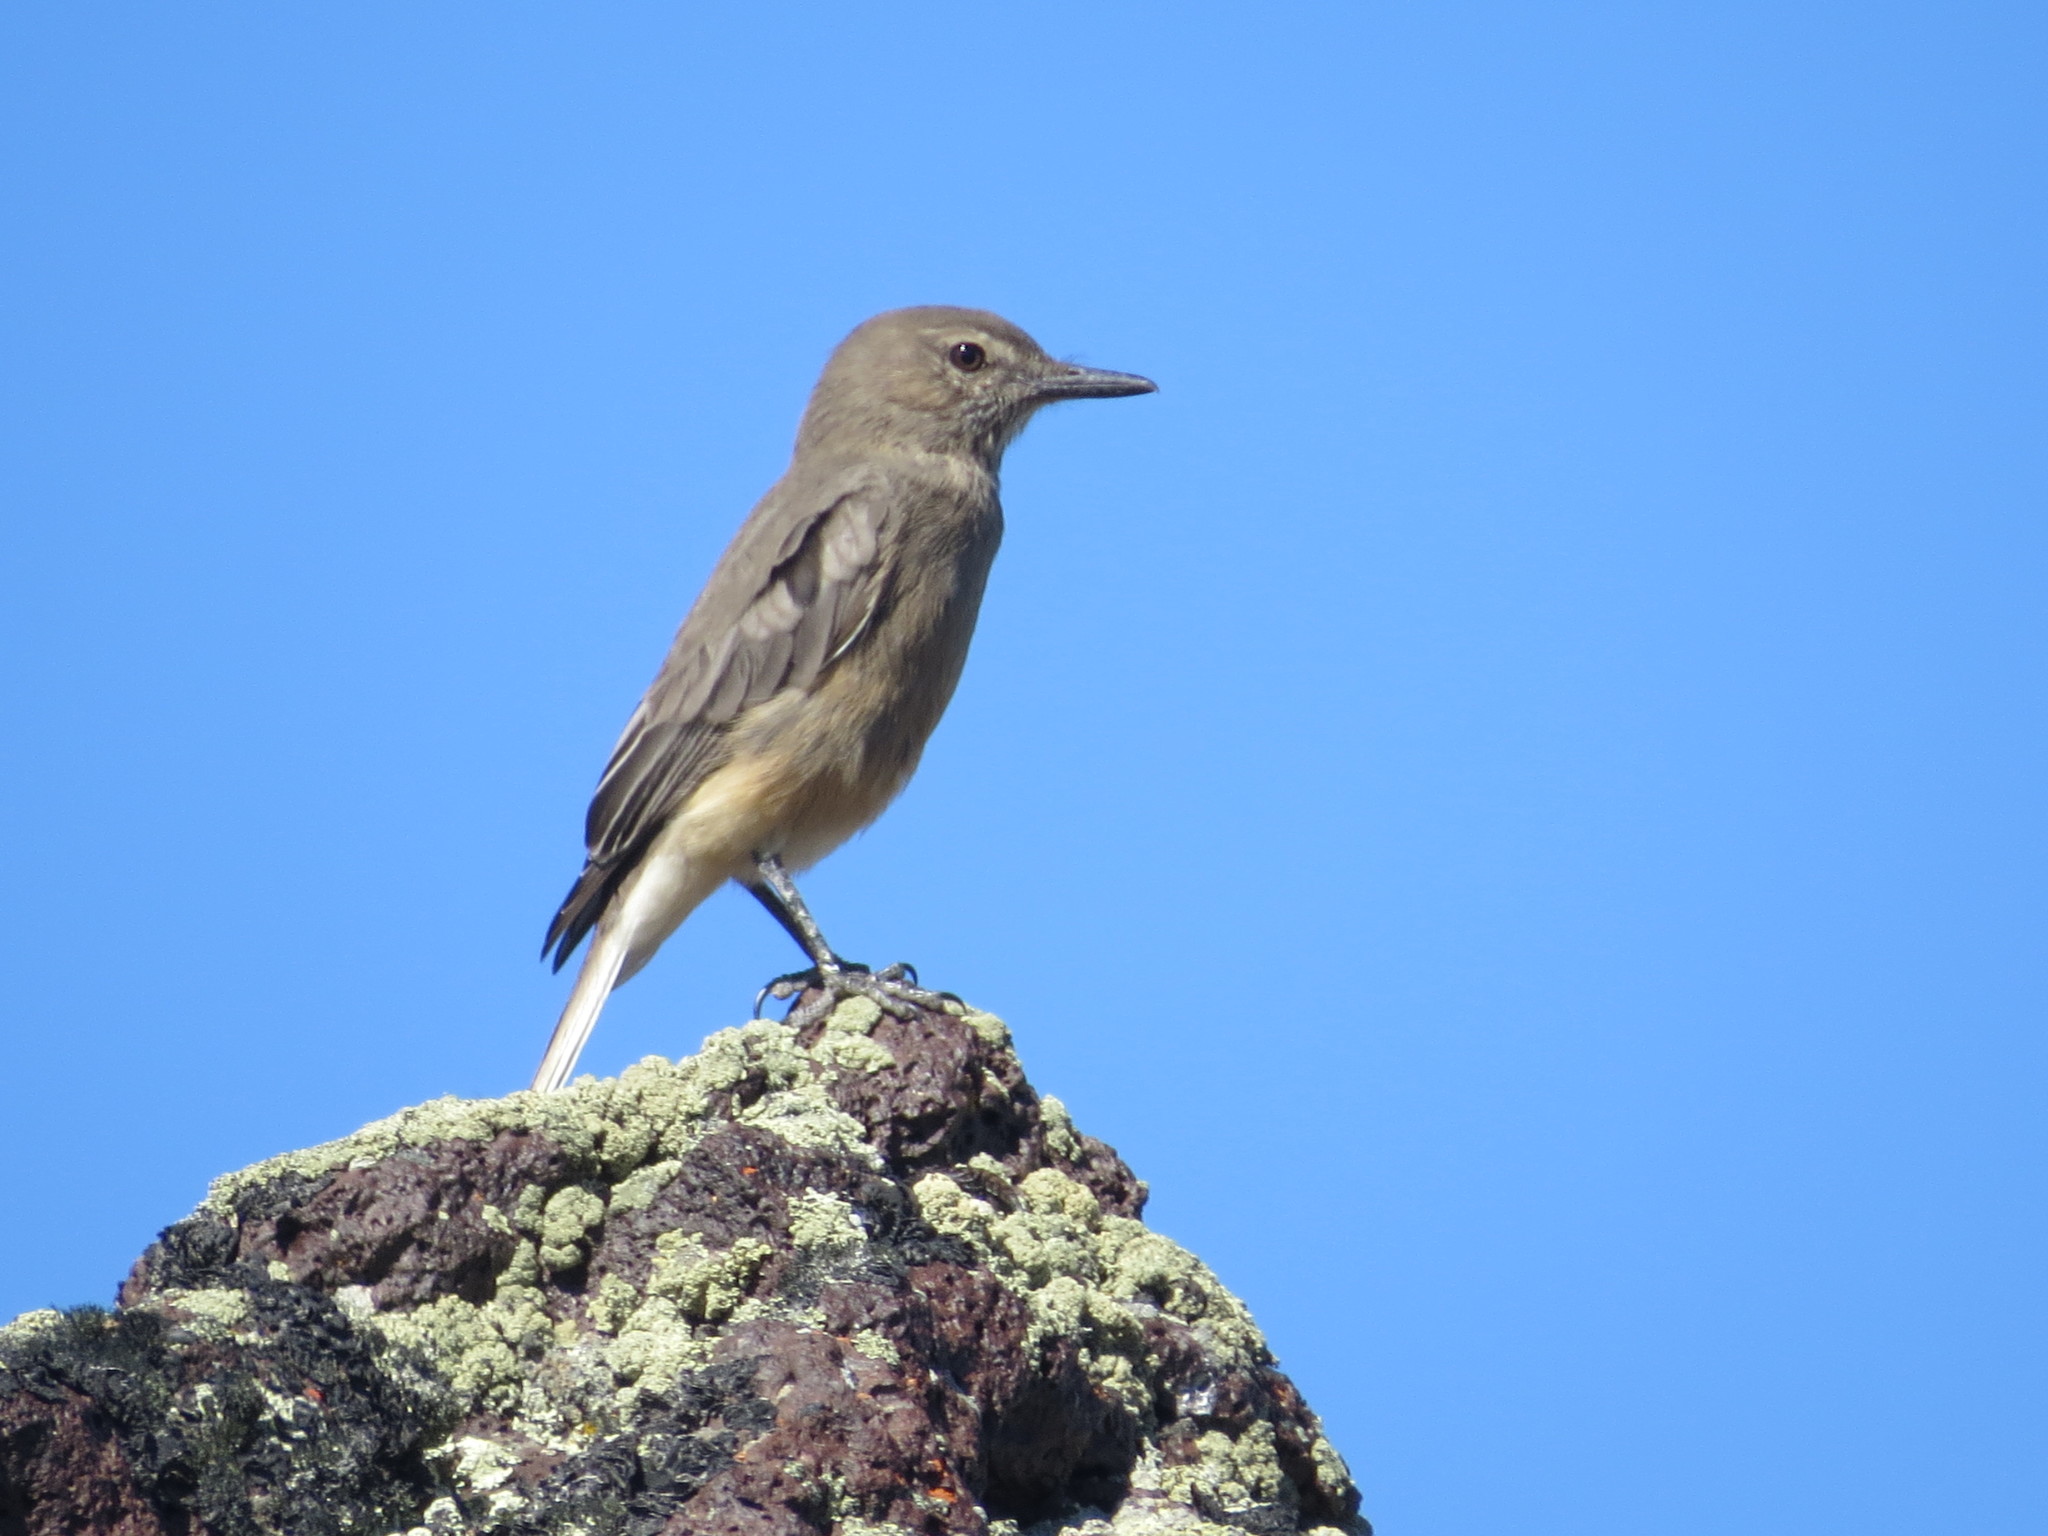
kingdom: Animalia
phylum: Chordata
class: Aves
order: Passeriformes
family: Tyrannidae
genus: Agriornis
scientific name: Agriornis montanus
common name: Black-billed shrike-tyrant
